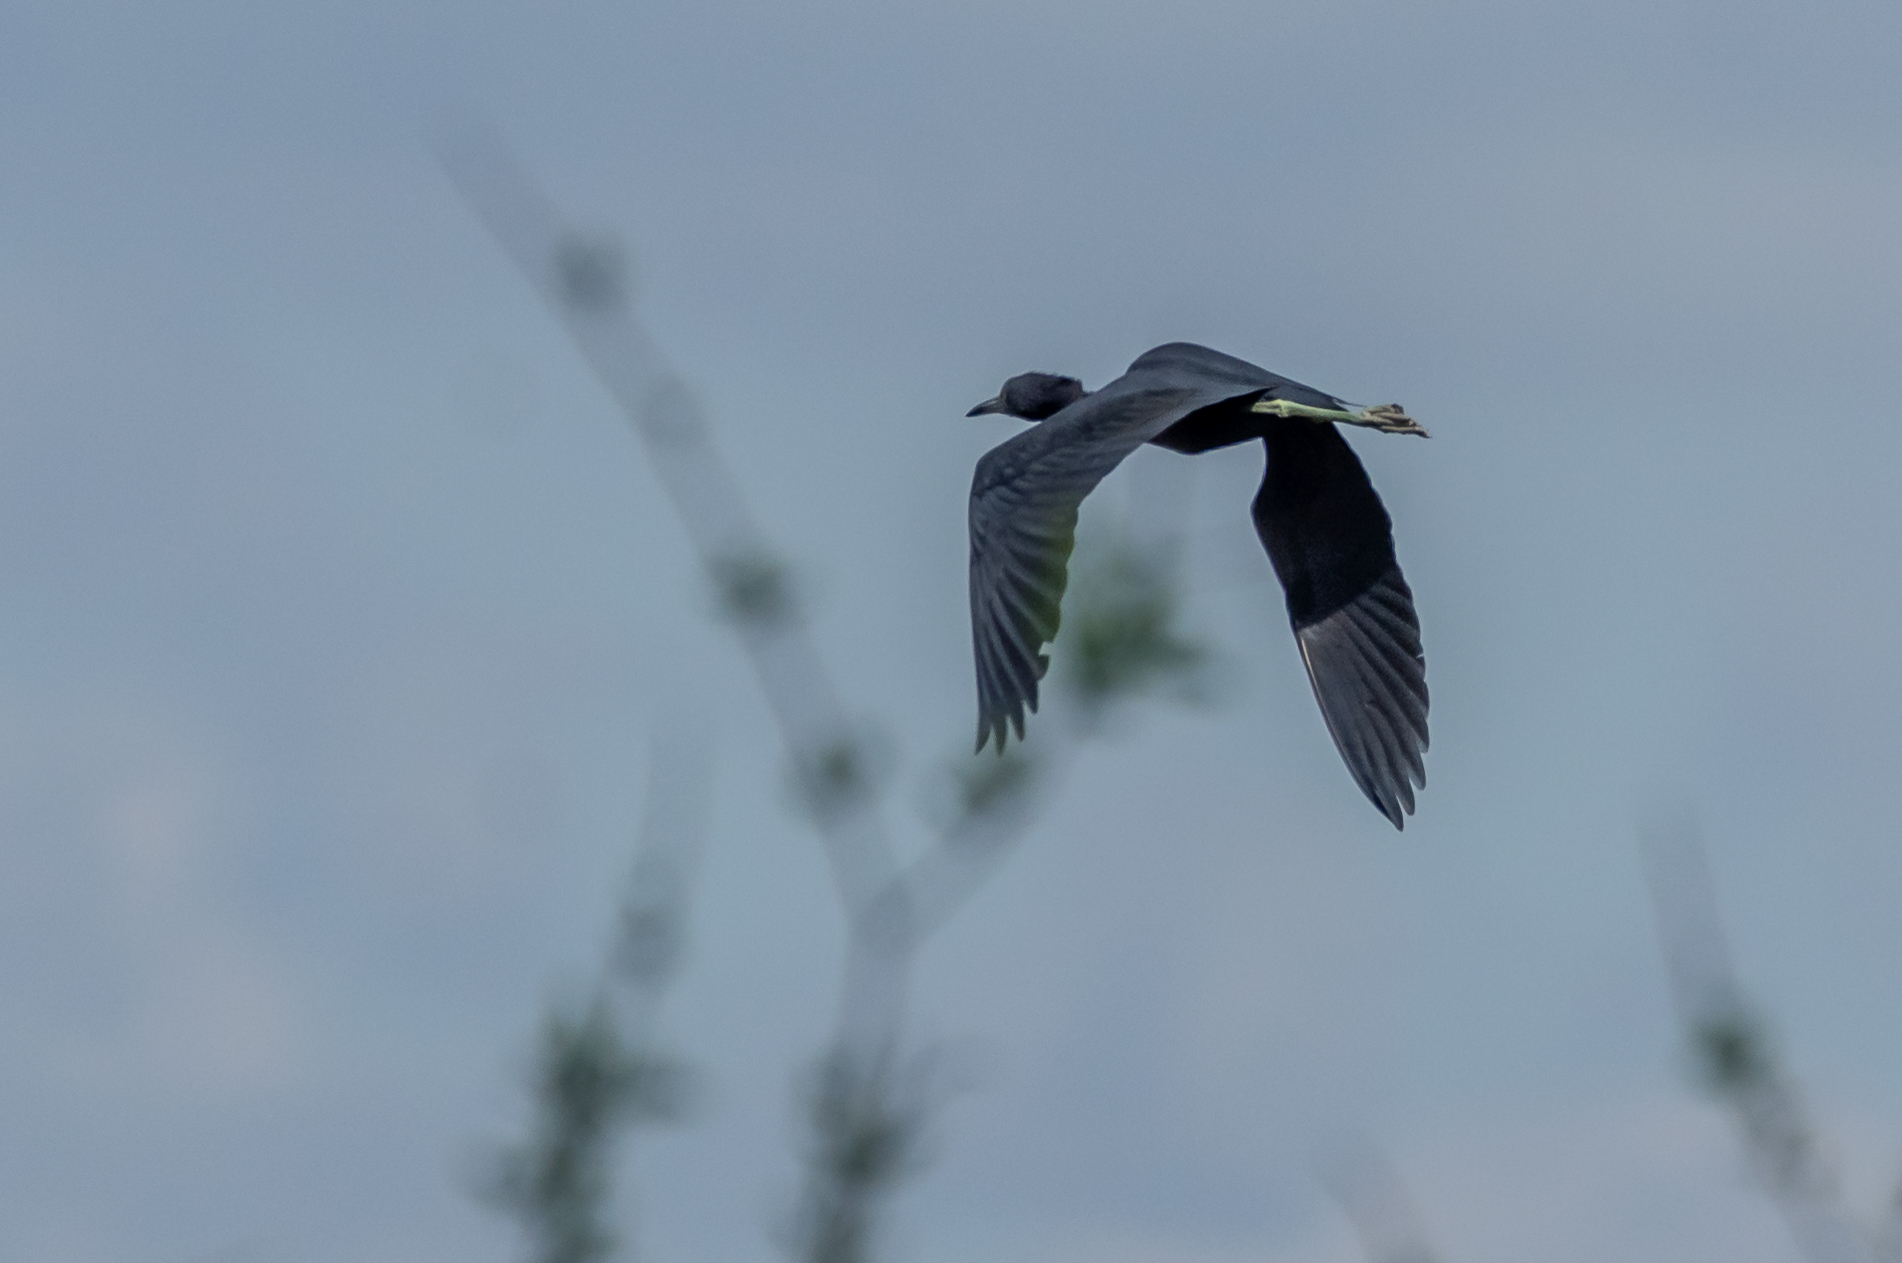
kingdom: Animalia
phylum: Chordata
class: Aves
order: Pelecaniformes
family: Ardeidae
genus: Egretta
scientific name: Egretta caerulea
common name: Little blue heron
